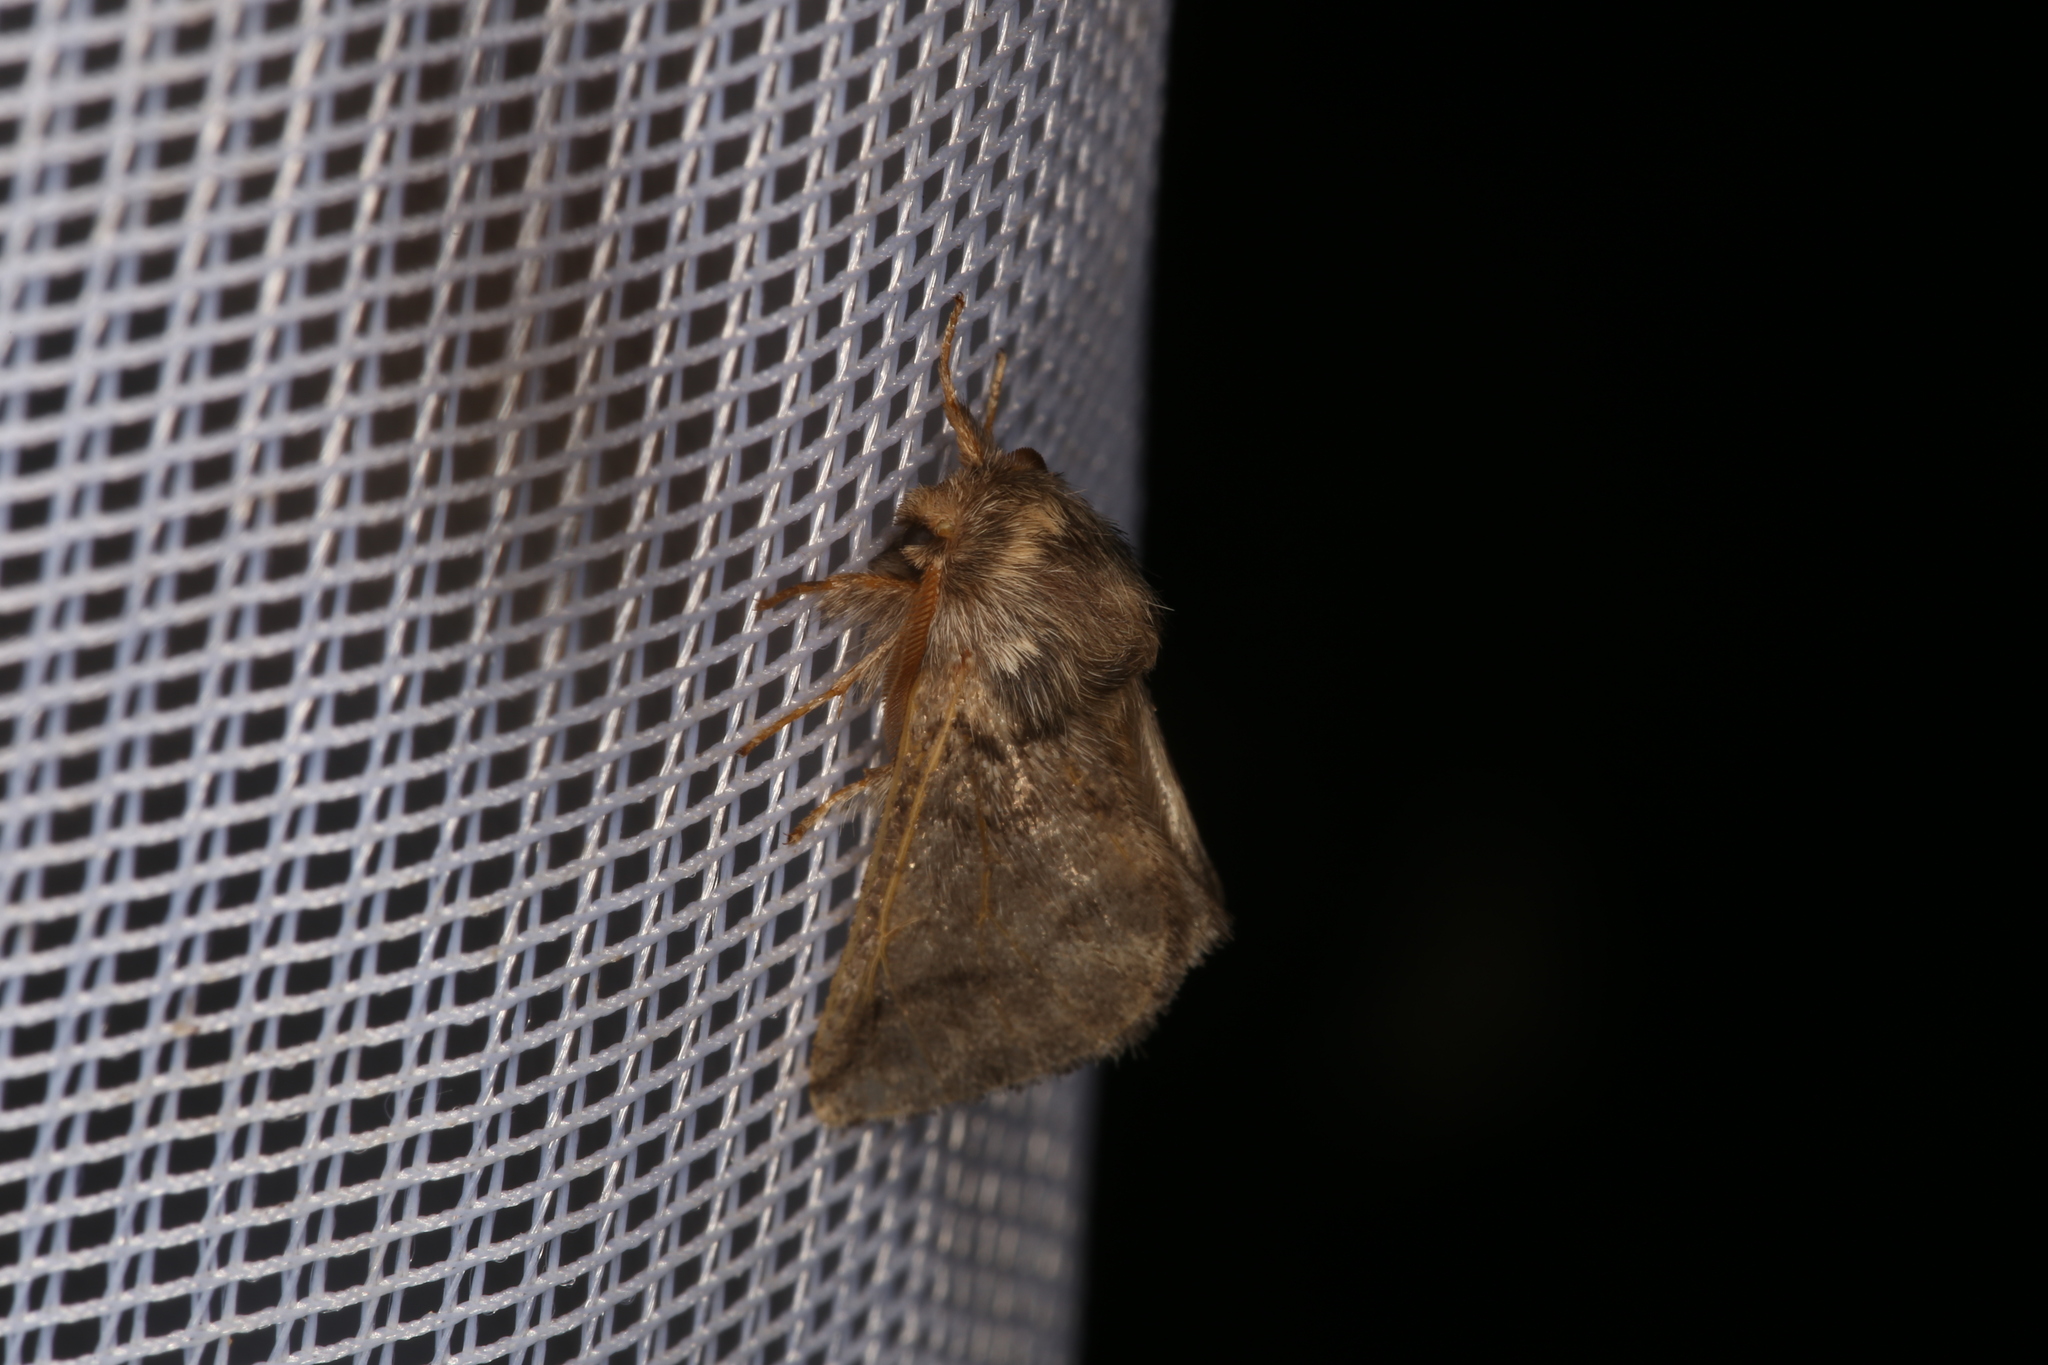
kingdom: Animalia
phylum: Arthropoda
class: Insecta
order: Lepidoptera
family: Notodontidae
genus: Thaumetopoea
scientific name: Thaumetopoea processionea
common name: Oak processionea
